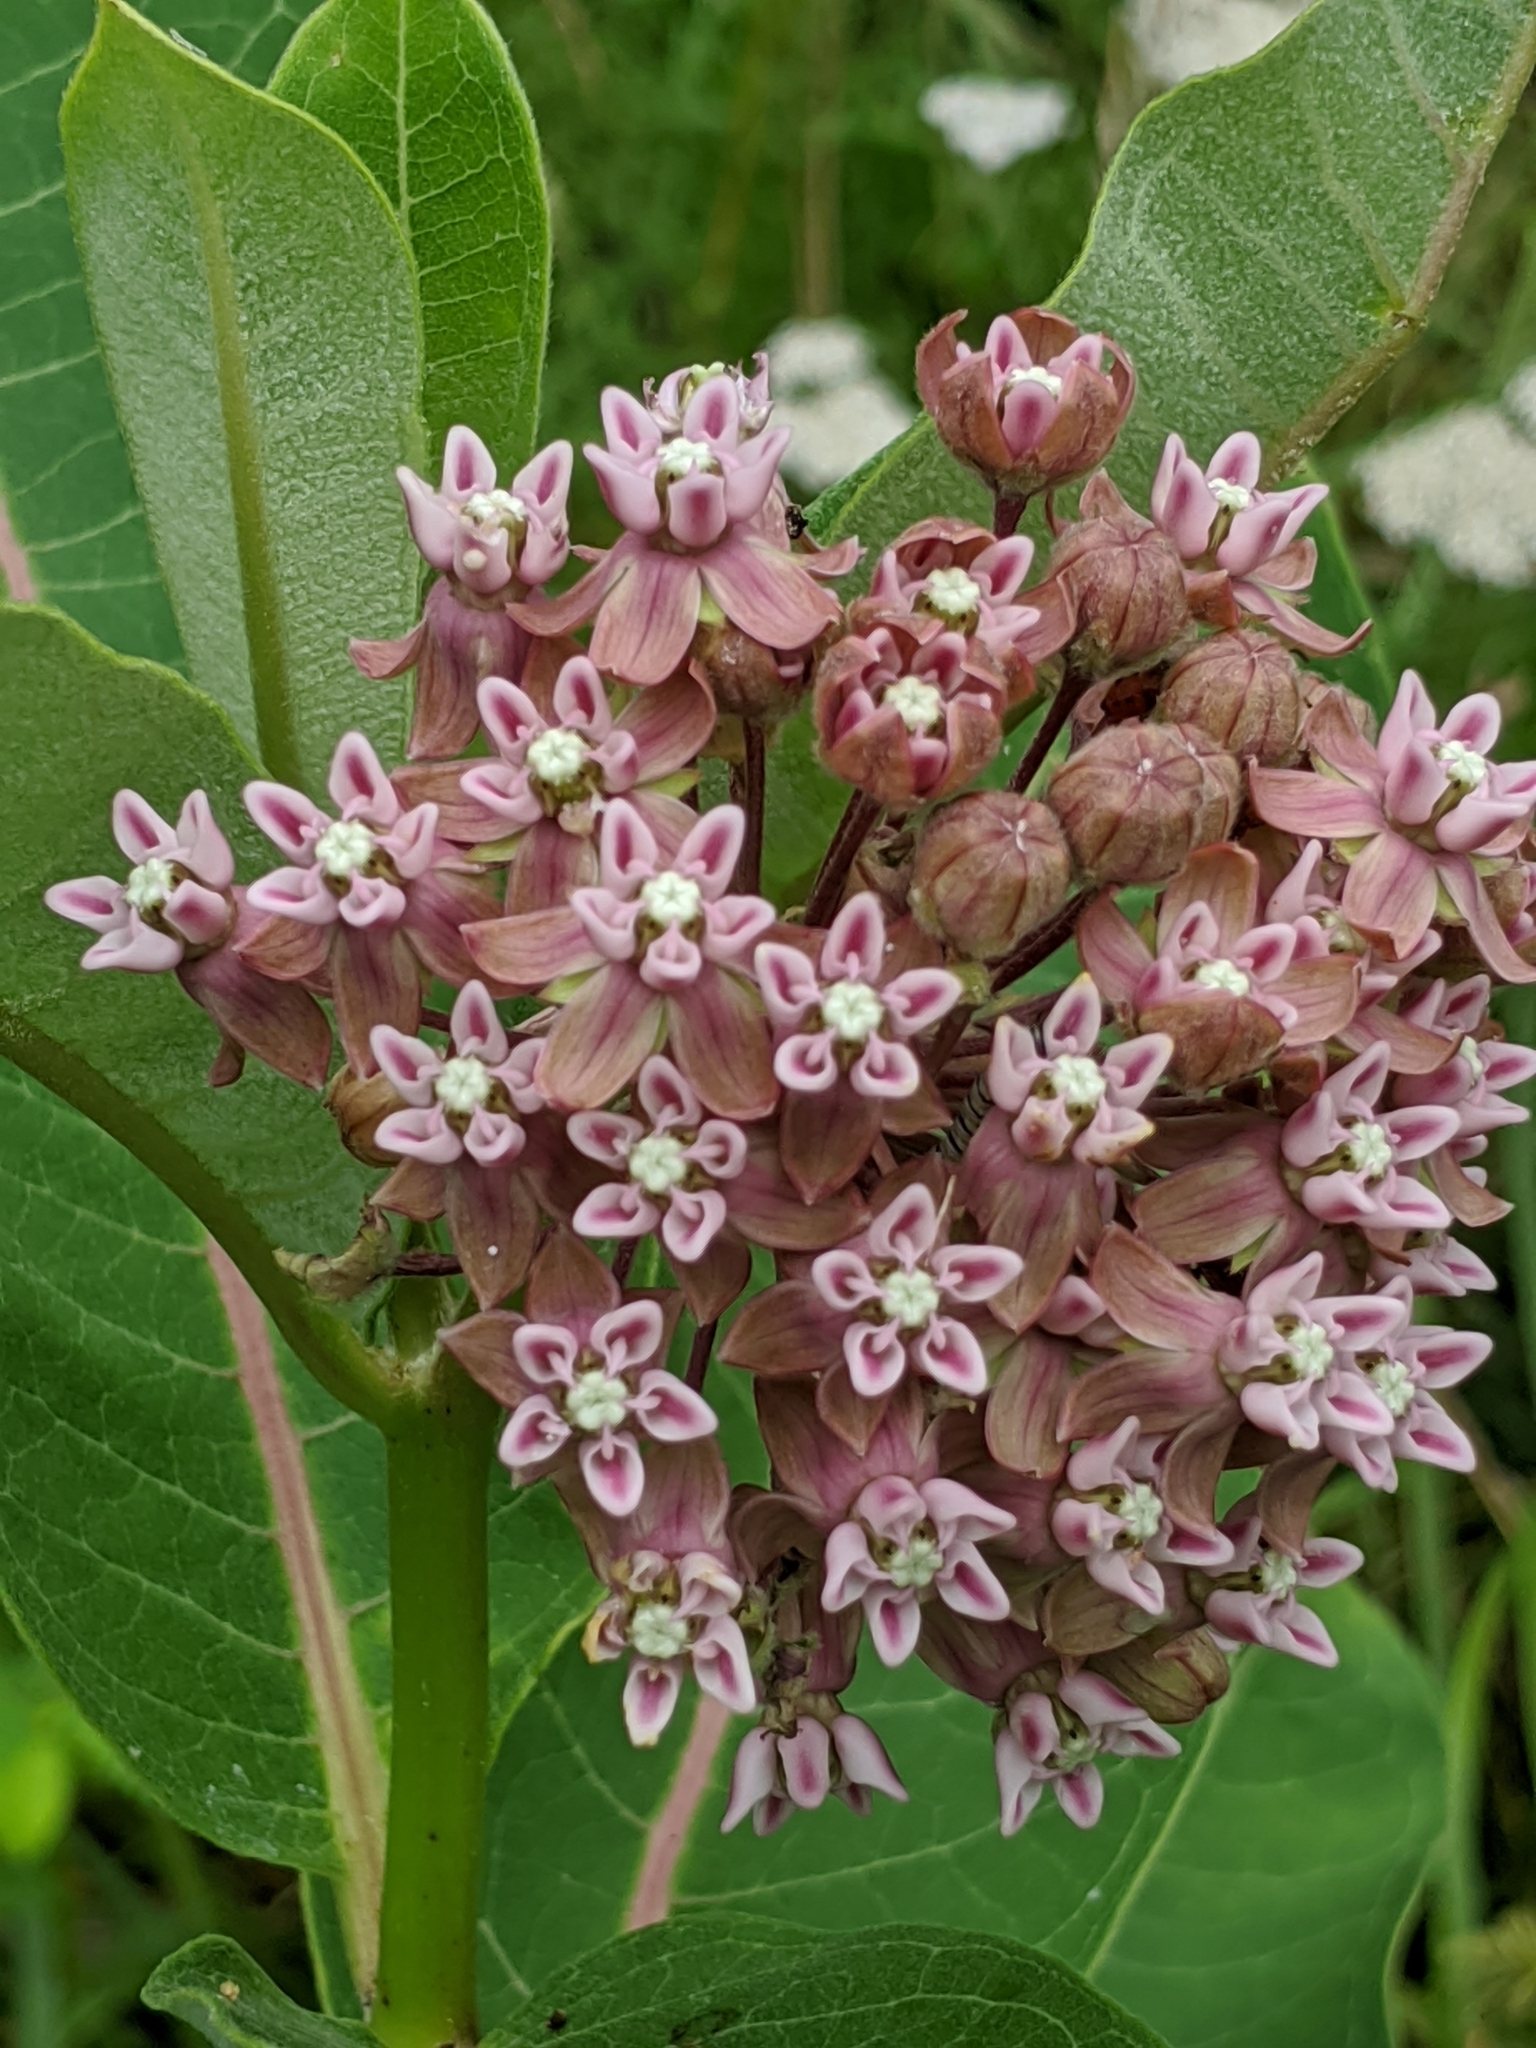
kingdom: Plantae
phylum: Tracheophyta
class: Magnoliopsida
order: Gentianales
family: Apocynaceae
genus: Asclepias
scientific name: Asclepias syriaca
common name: Common milkweed
